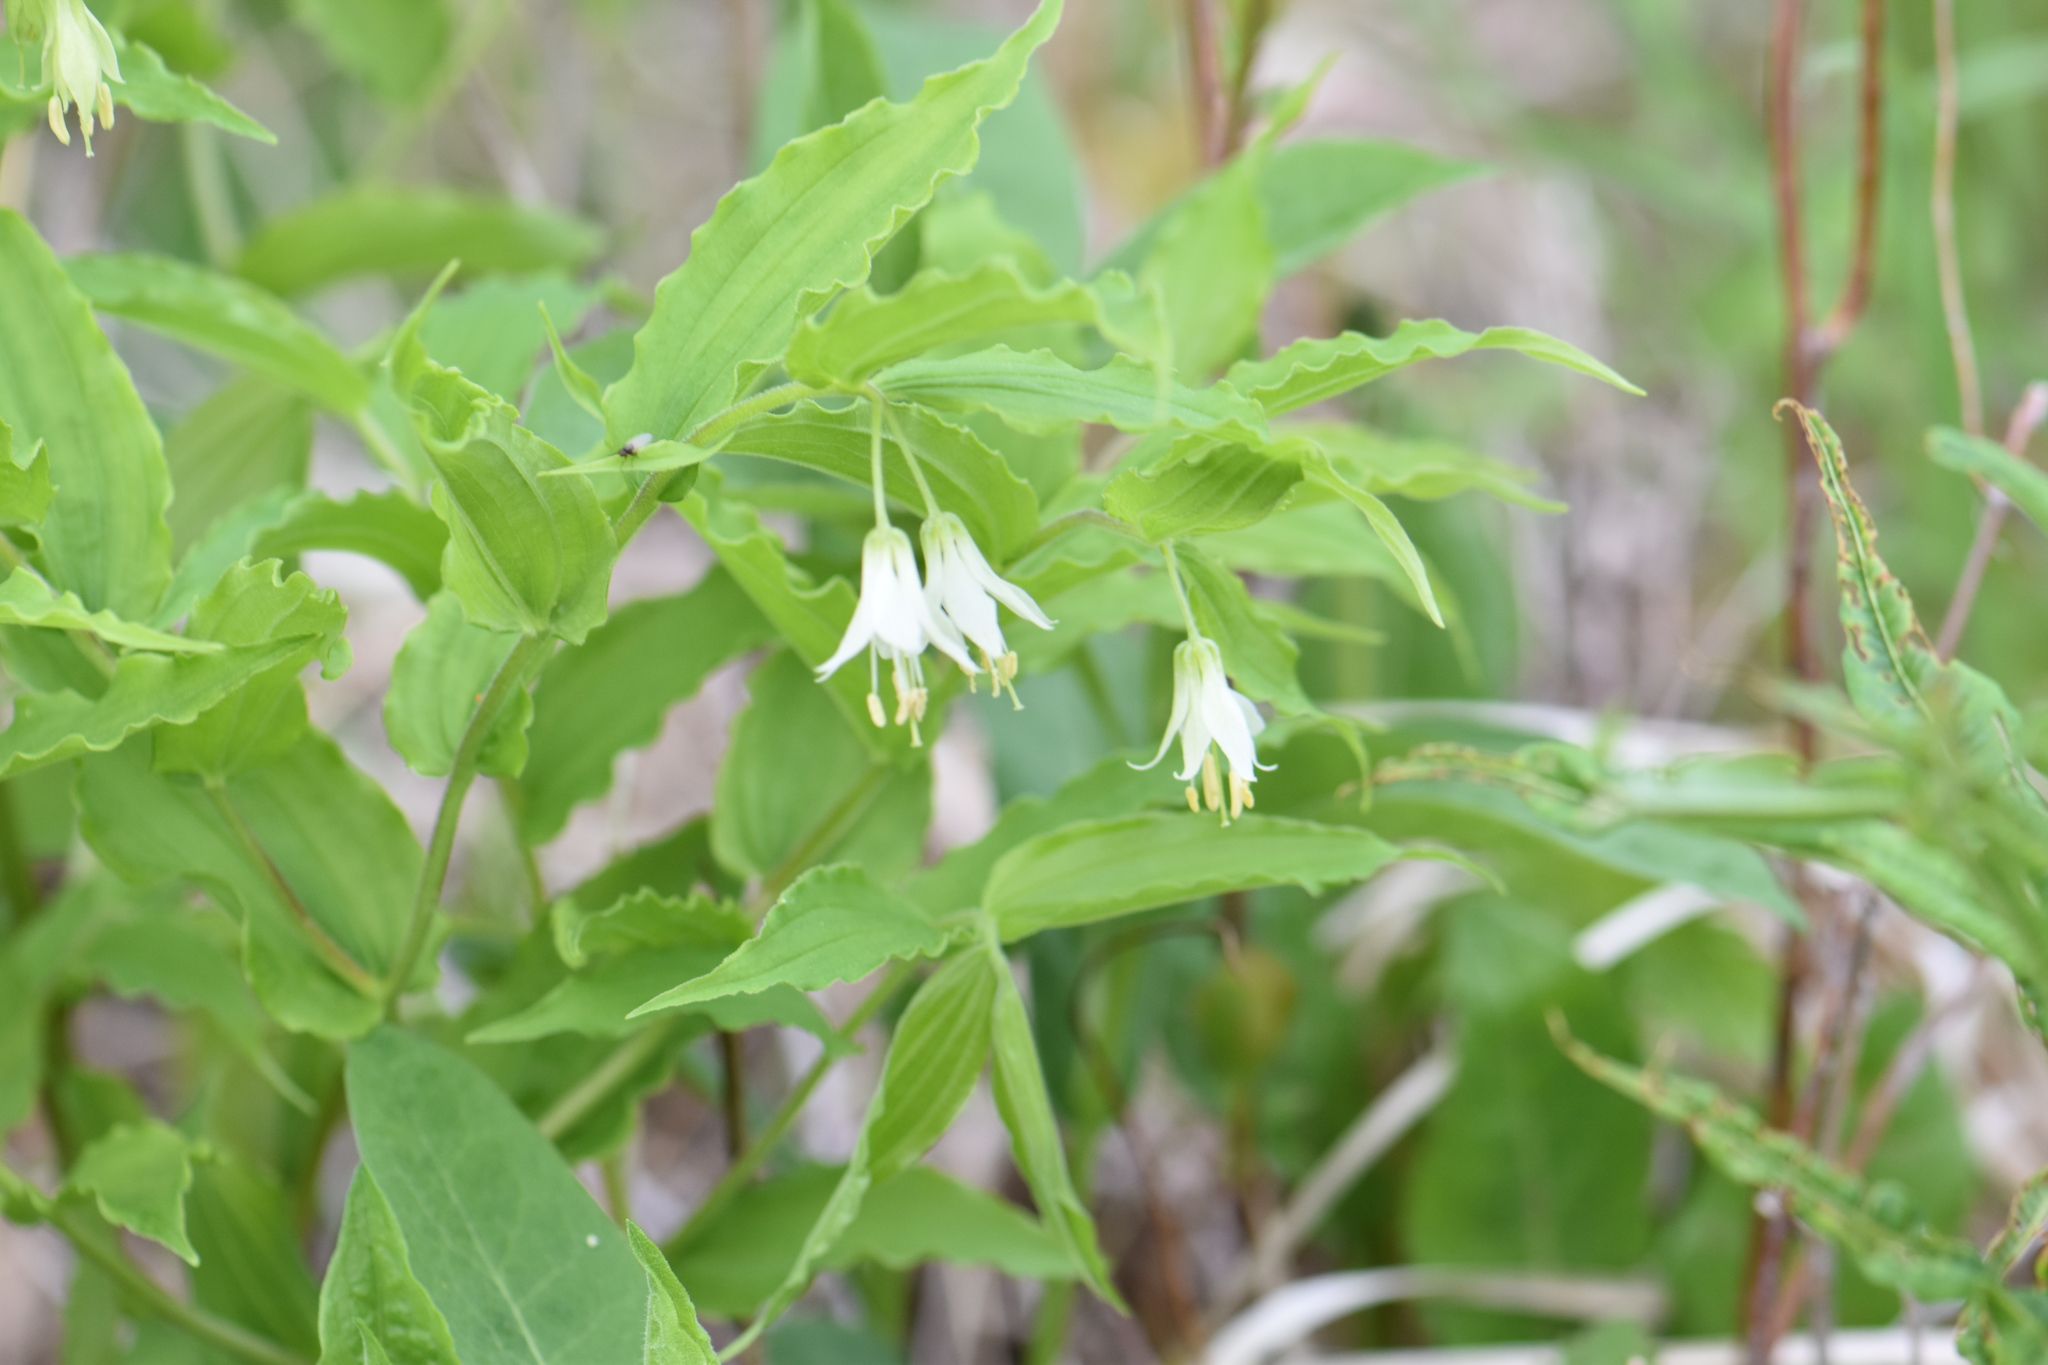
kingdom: Plantae
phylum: Tracheophyta
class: Liliopsida
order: Liliales
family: Liliaceae
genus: Prosartes
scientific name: Prosartes hookeri
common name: Fairy-bells
